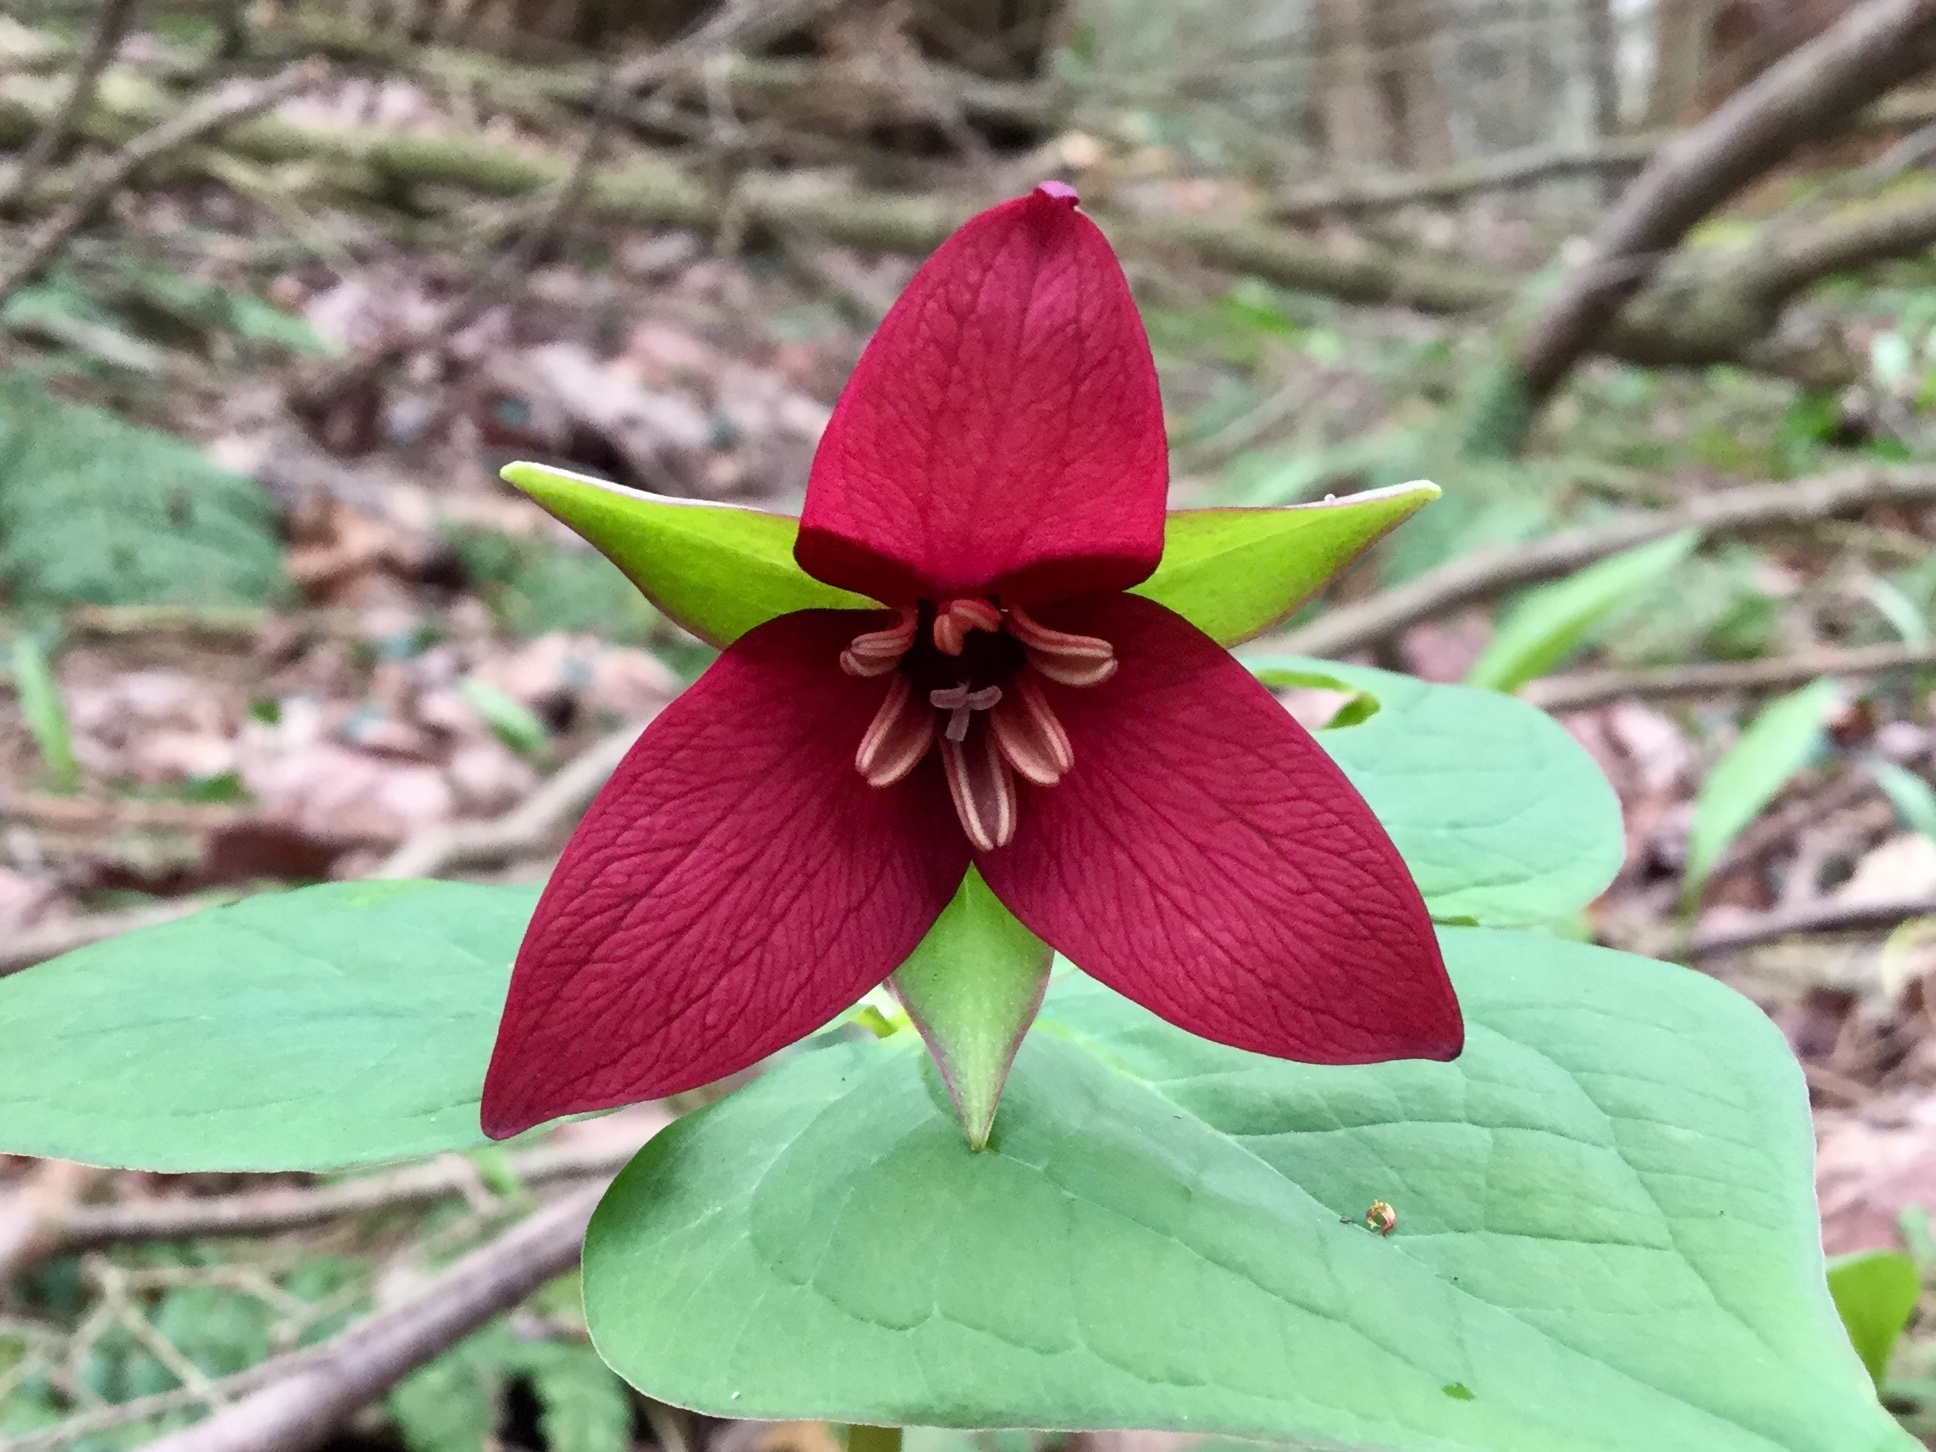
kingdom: Plantae
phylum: Tracheophyta
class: Liliopsida
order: Liliales
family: Melanthiaceae
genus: Trillium
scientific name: Trillium erectum
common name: Purple trillium
